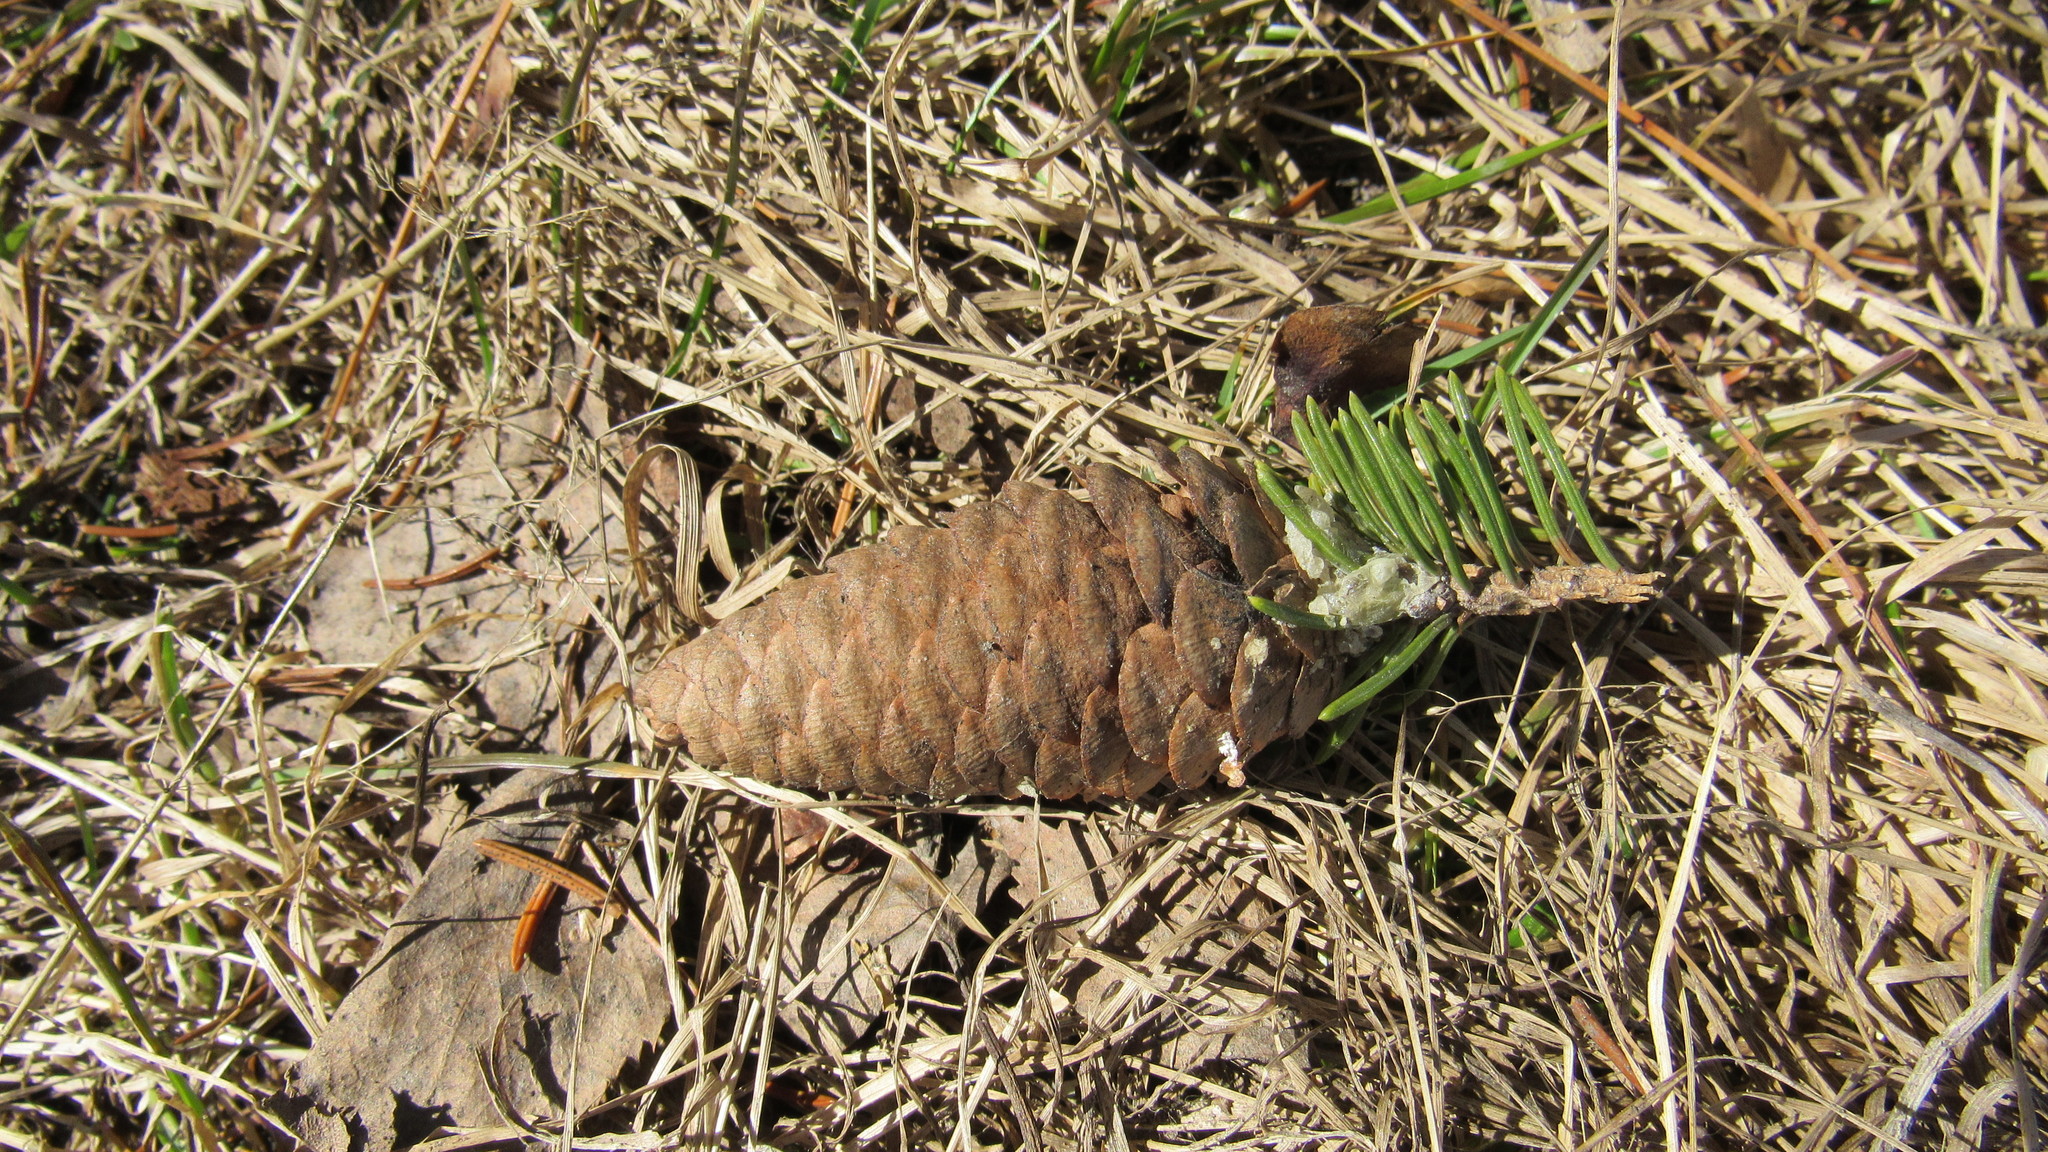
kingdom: Plantae
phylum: Tracheophyta
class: Pinopsida
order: Pinales
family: Pinaceae
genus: Picea
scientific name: Picea obovata
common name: Siberian spruce
